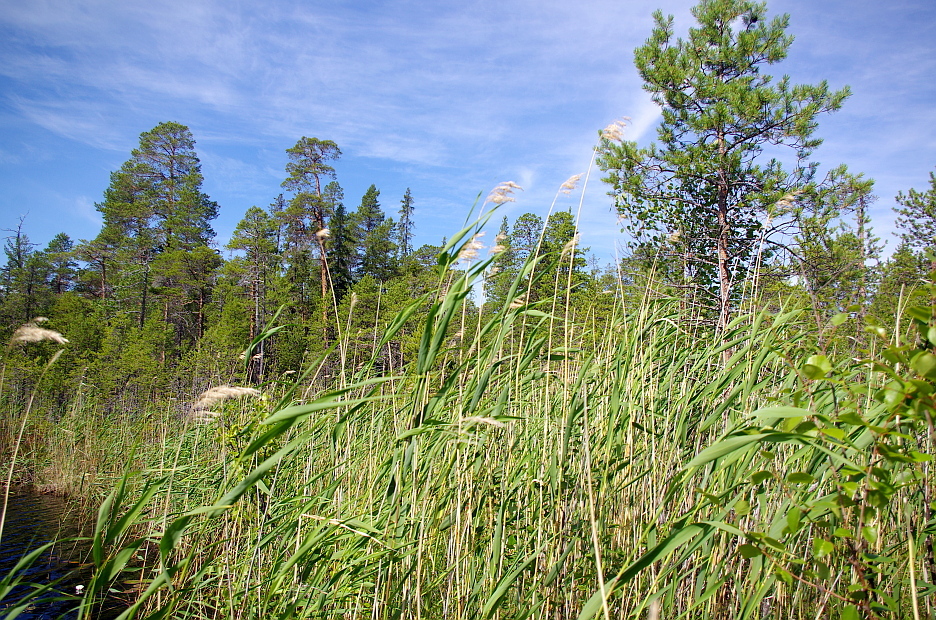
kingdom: Plantae
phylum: Tracheophyta
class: Pinopsida
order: Pinales
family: Pinaceae
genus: Pinus
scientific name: Pinus sylvestris
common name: Scots pine
